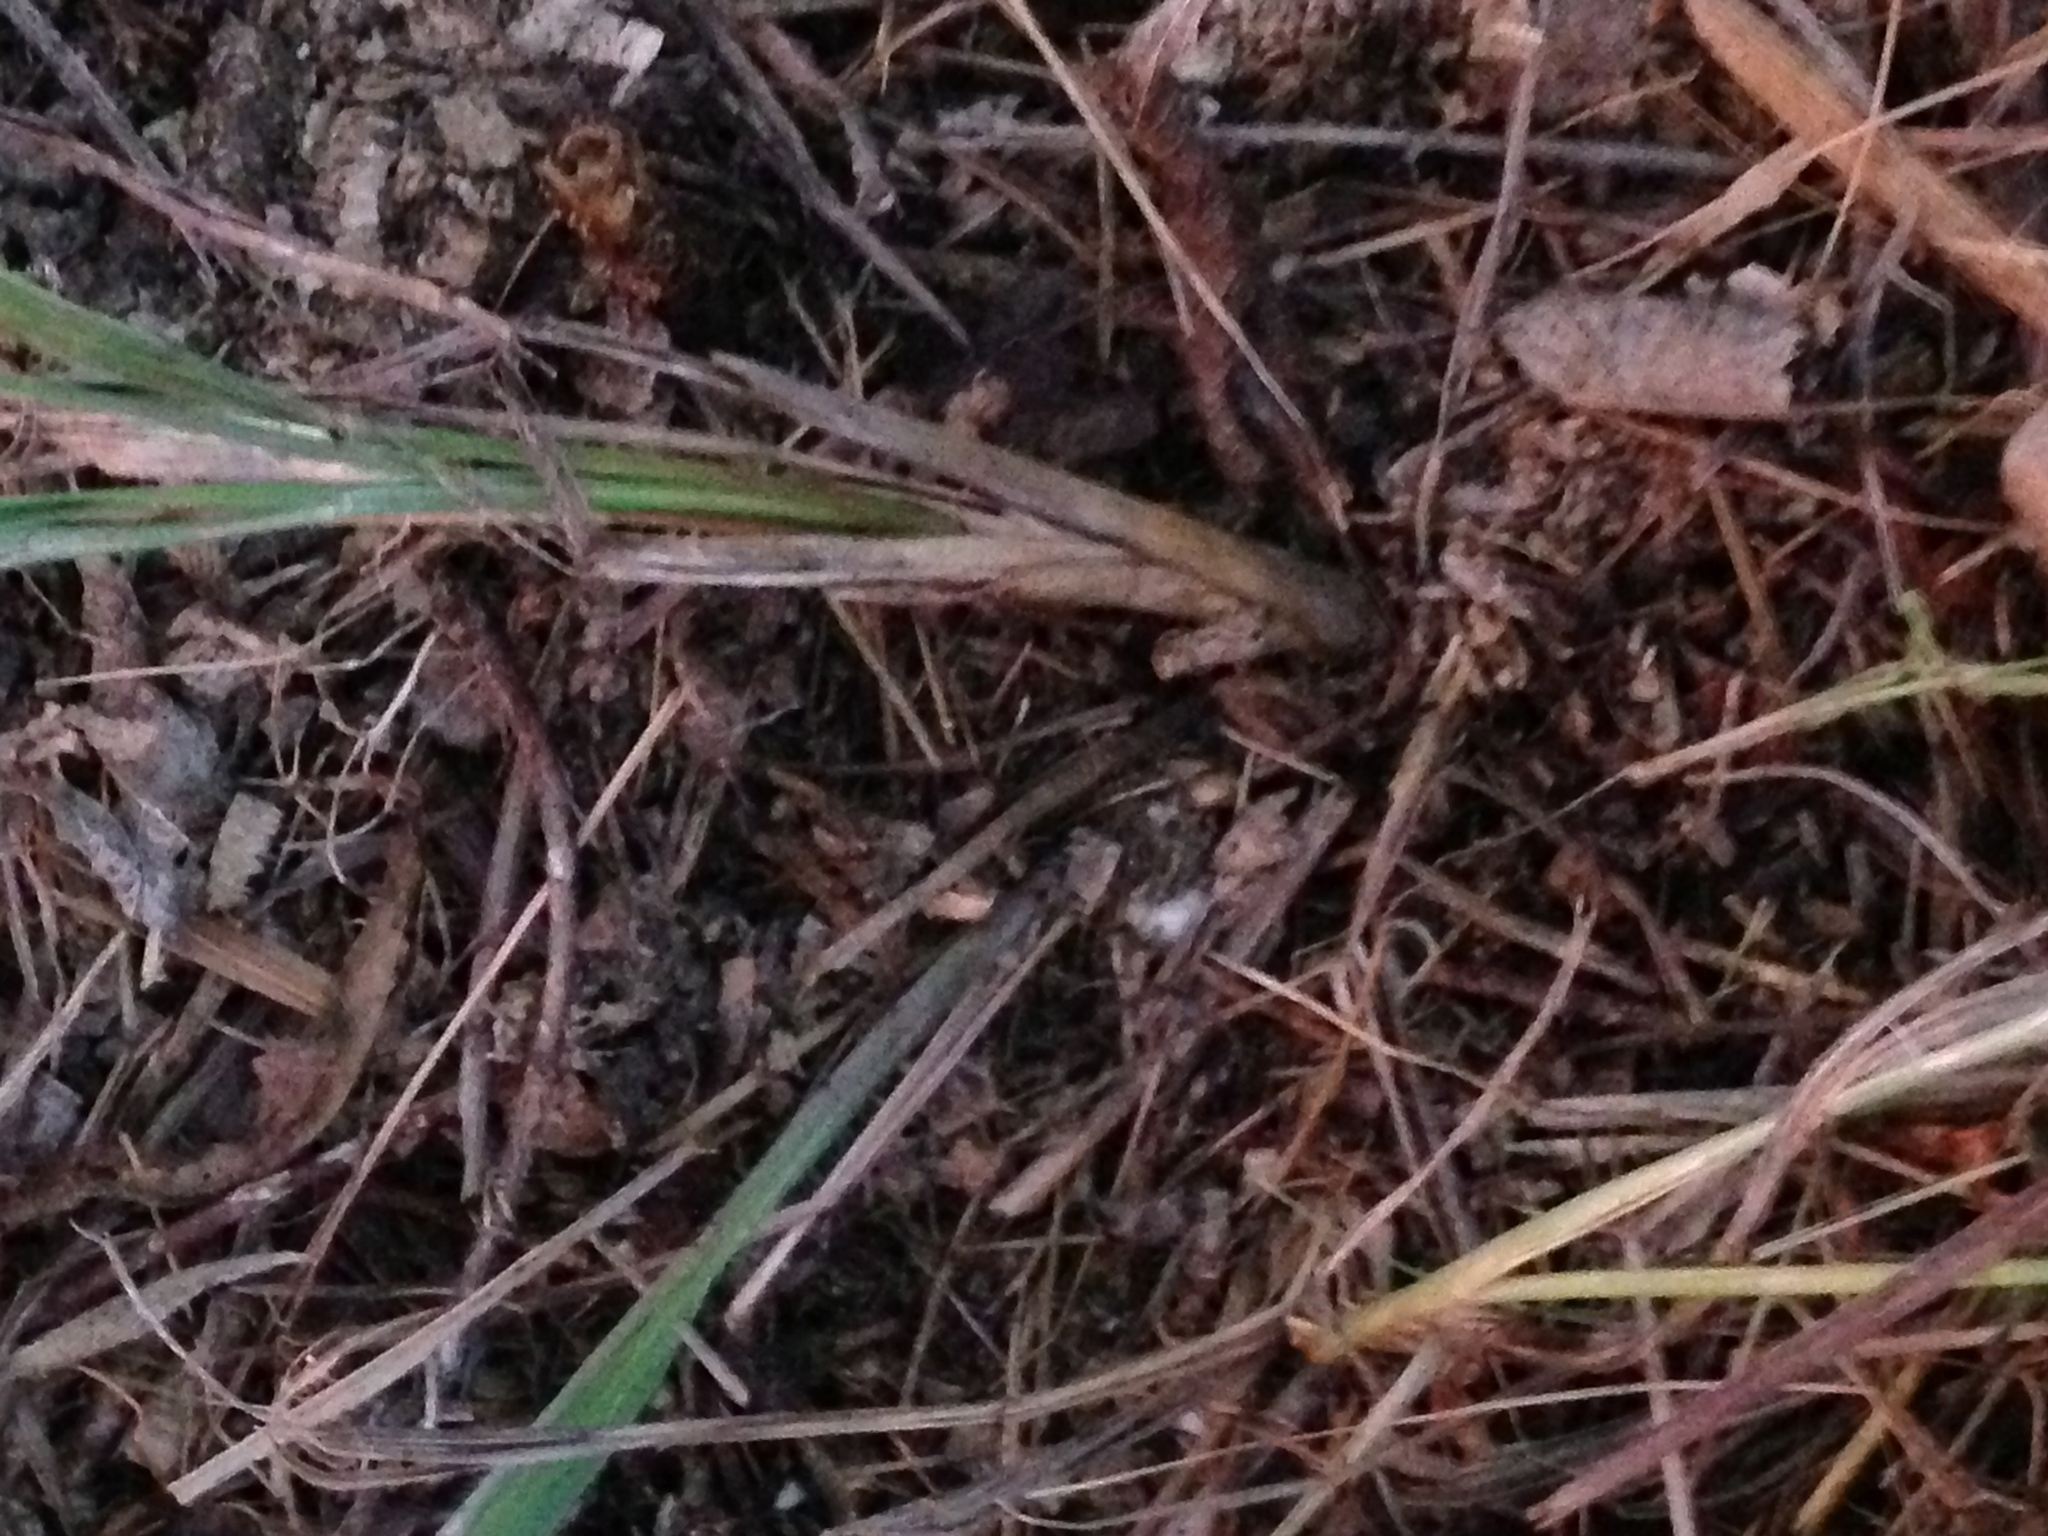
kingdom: Plantae
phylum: Tracheophyta
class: Liliopsida
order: Poales
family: Poaceae
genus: Sorghastrum
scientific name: Sorghastrum nutans
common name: Indian grass
